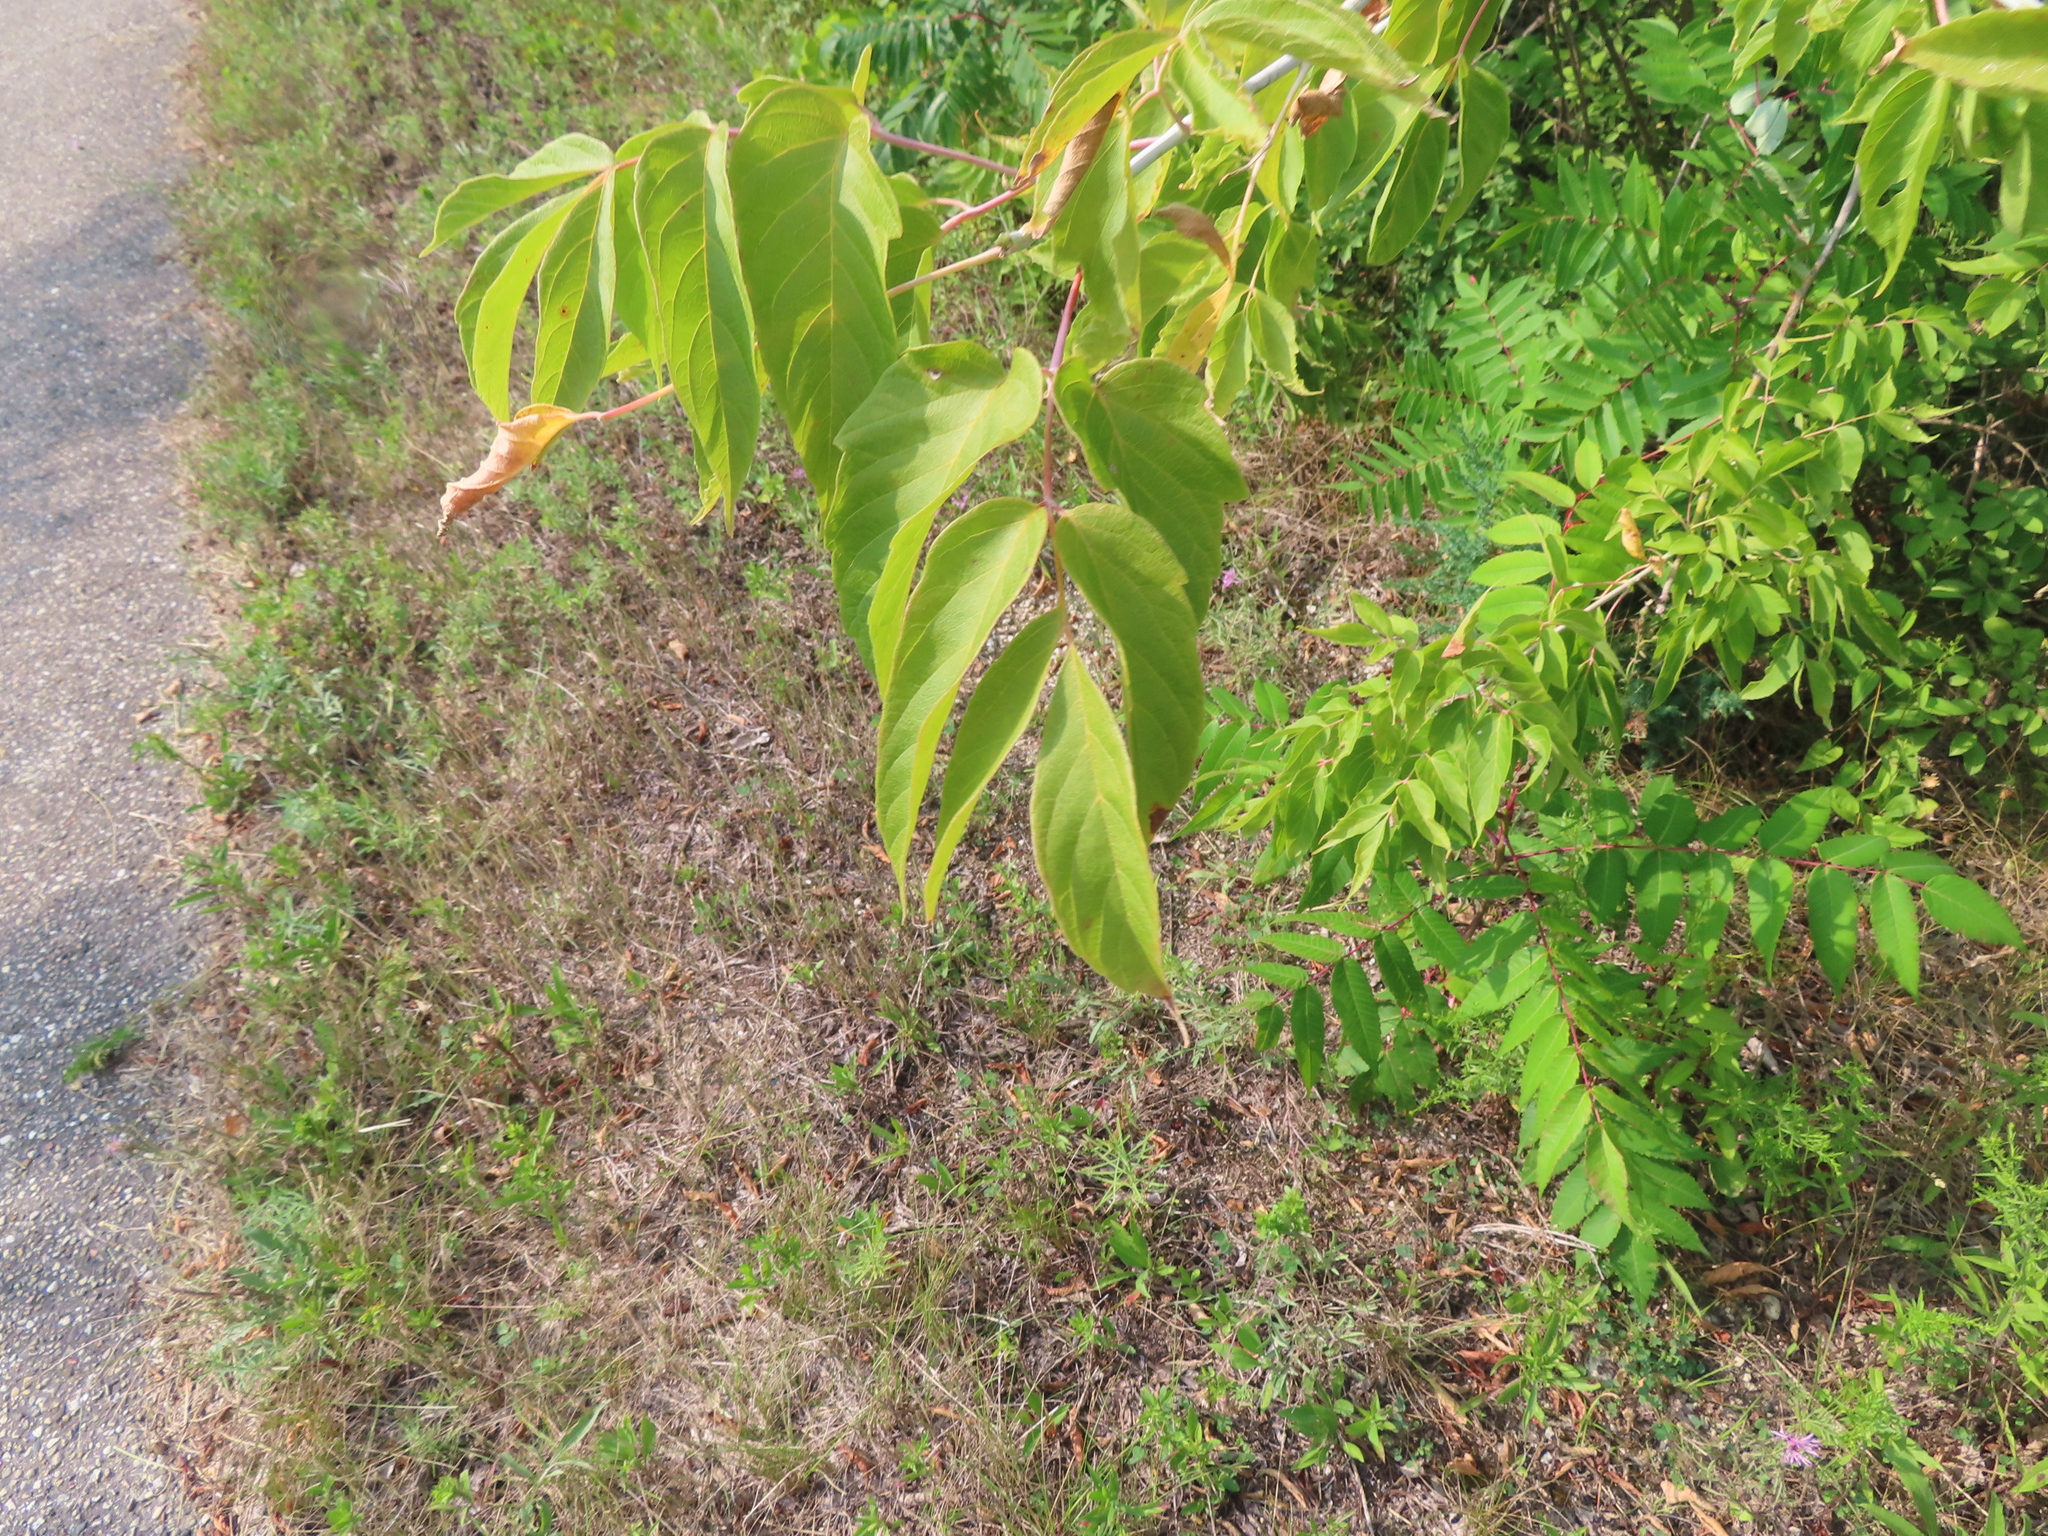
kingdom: Plantae
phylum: Tracheophyta
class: Magnoliopsida
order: Sapindales
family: Sapindaceae
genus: Acer
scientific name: Acer negundo
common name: Ashleaf maple
